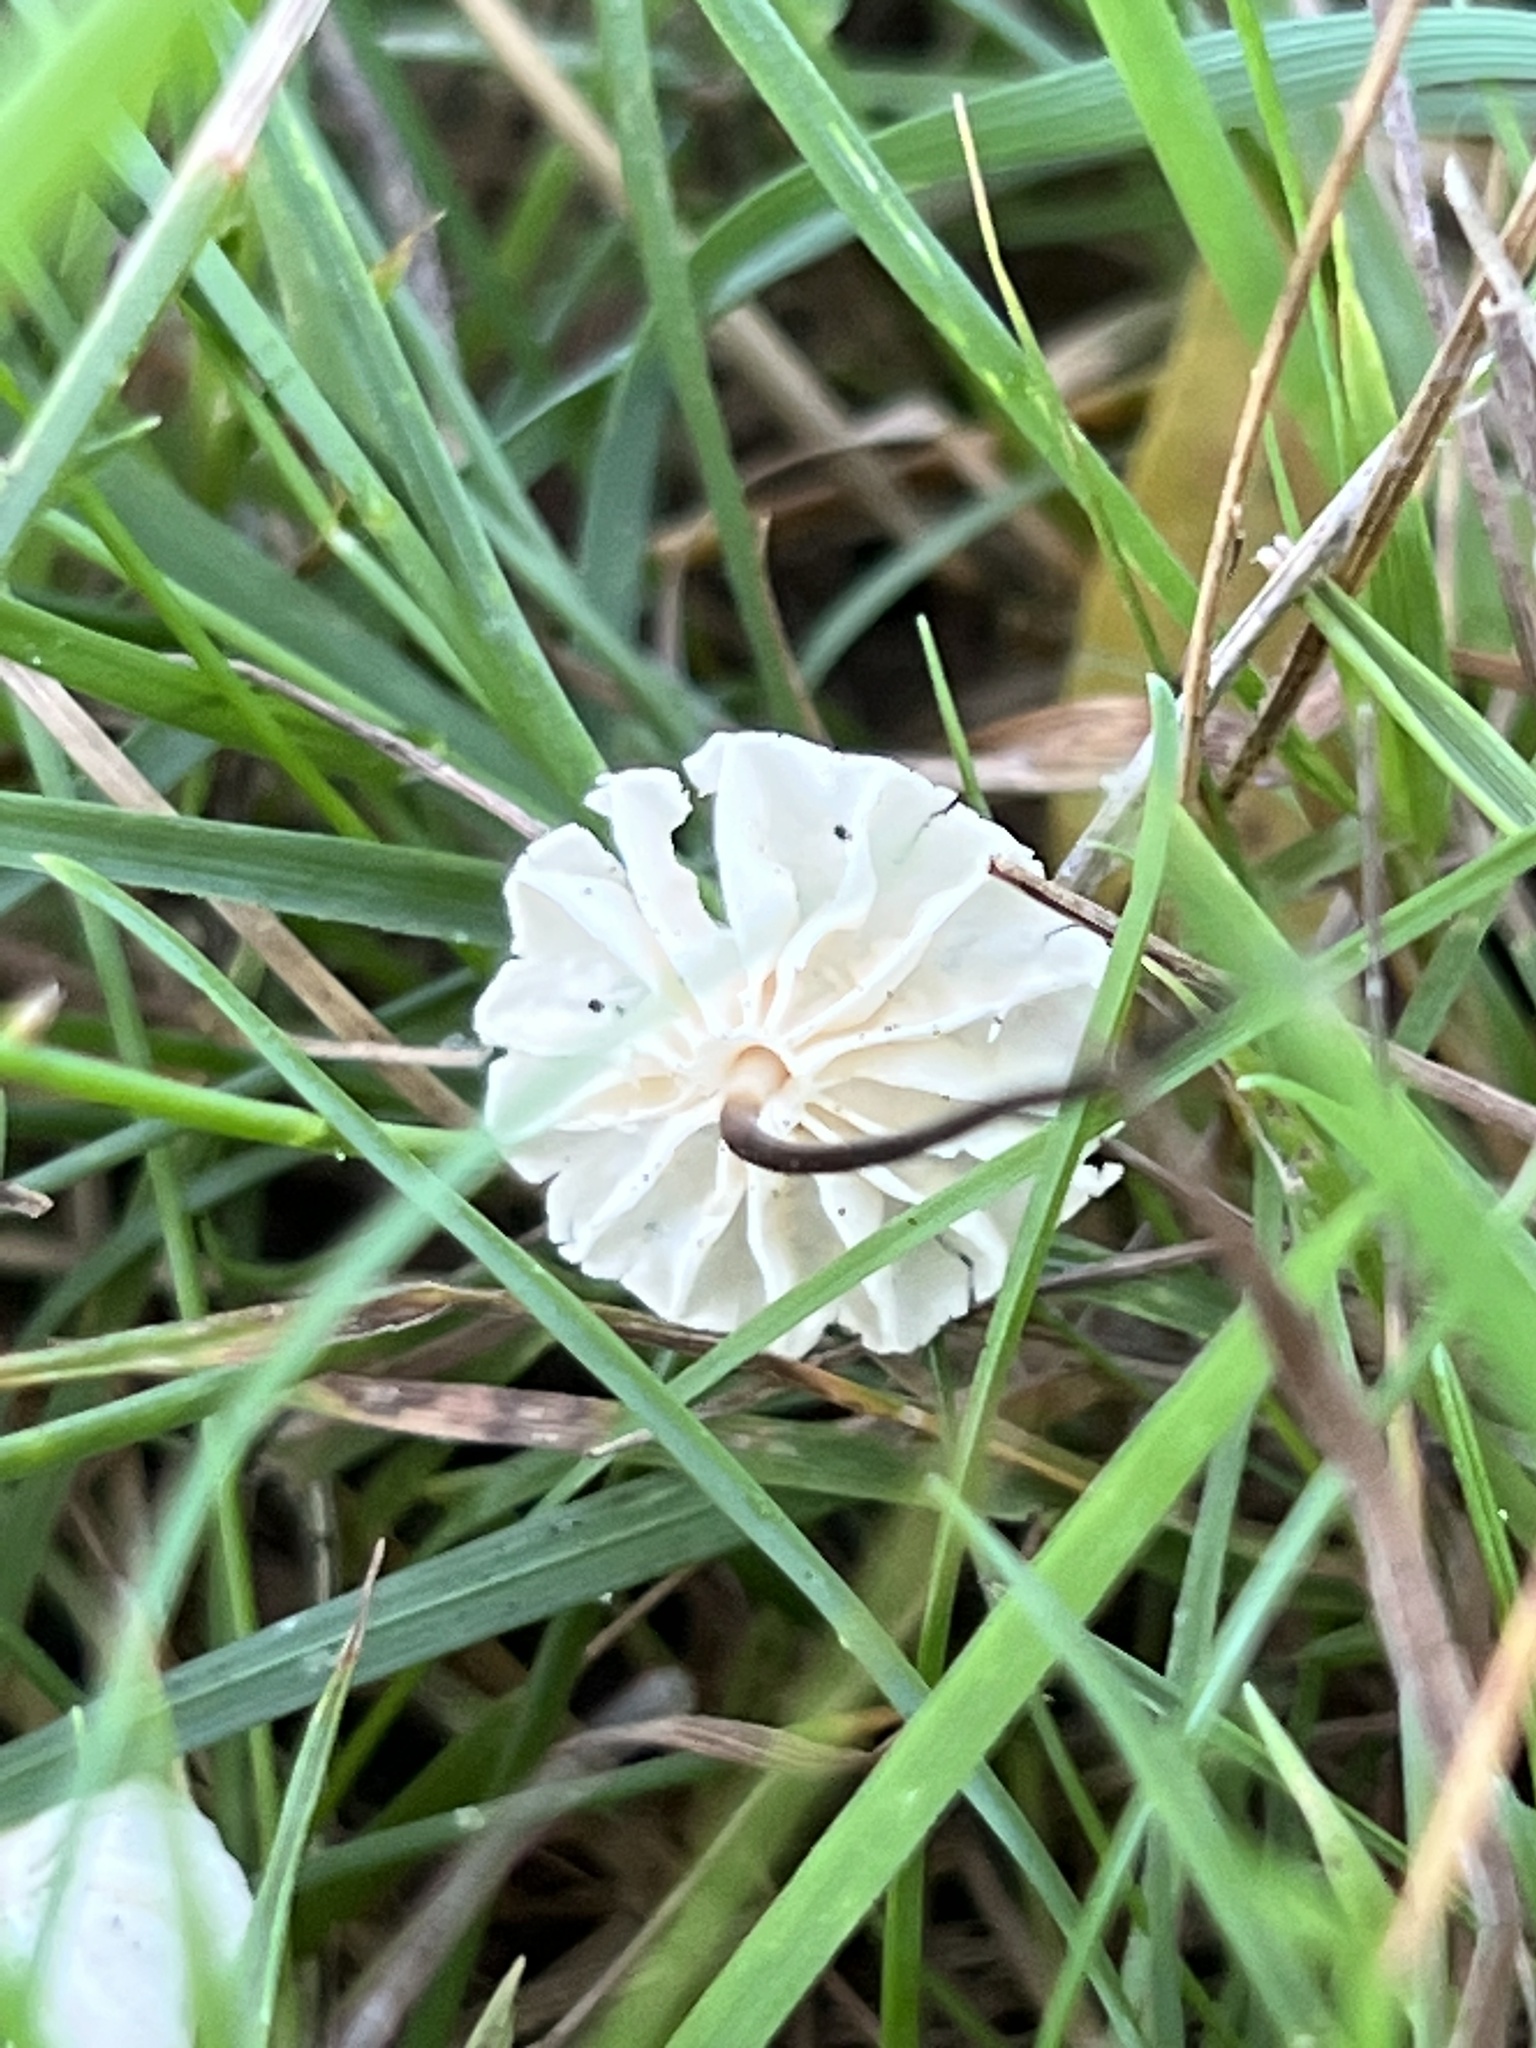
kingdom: Fungi
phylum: Basidiomycota
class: Agaricomycetes
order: Agaricales
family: Marasmiaceae
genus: Marasmius
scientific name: Marasmius rotula
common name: Collared parachute
